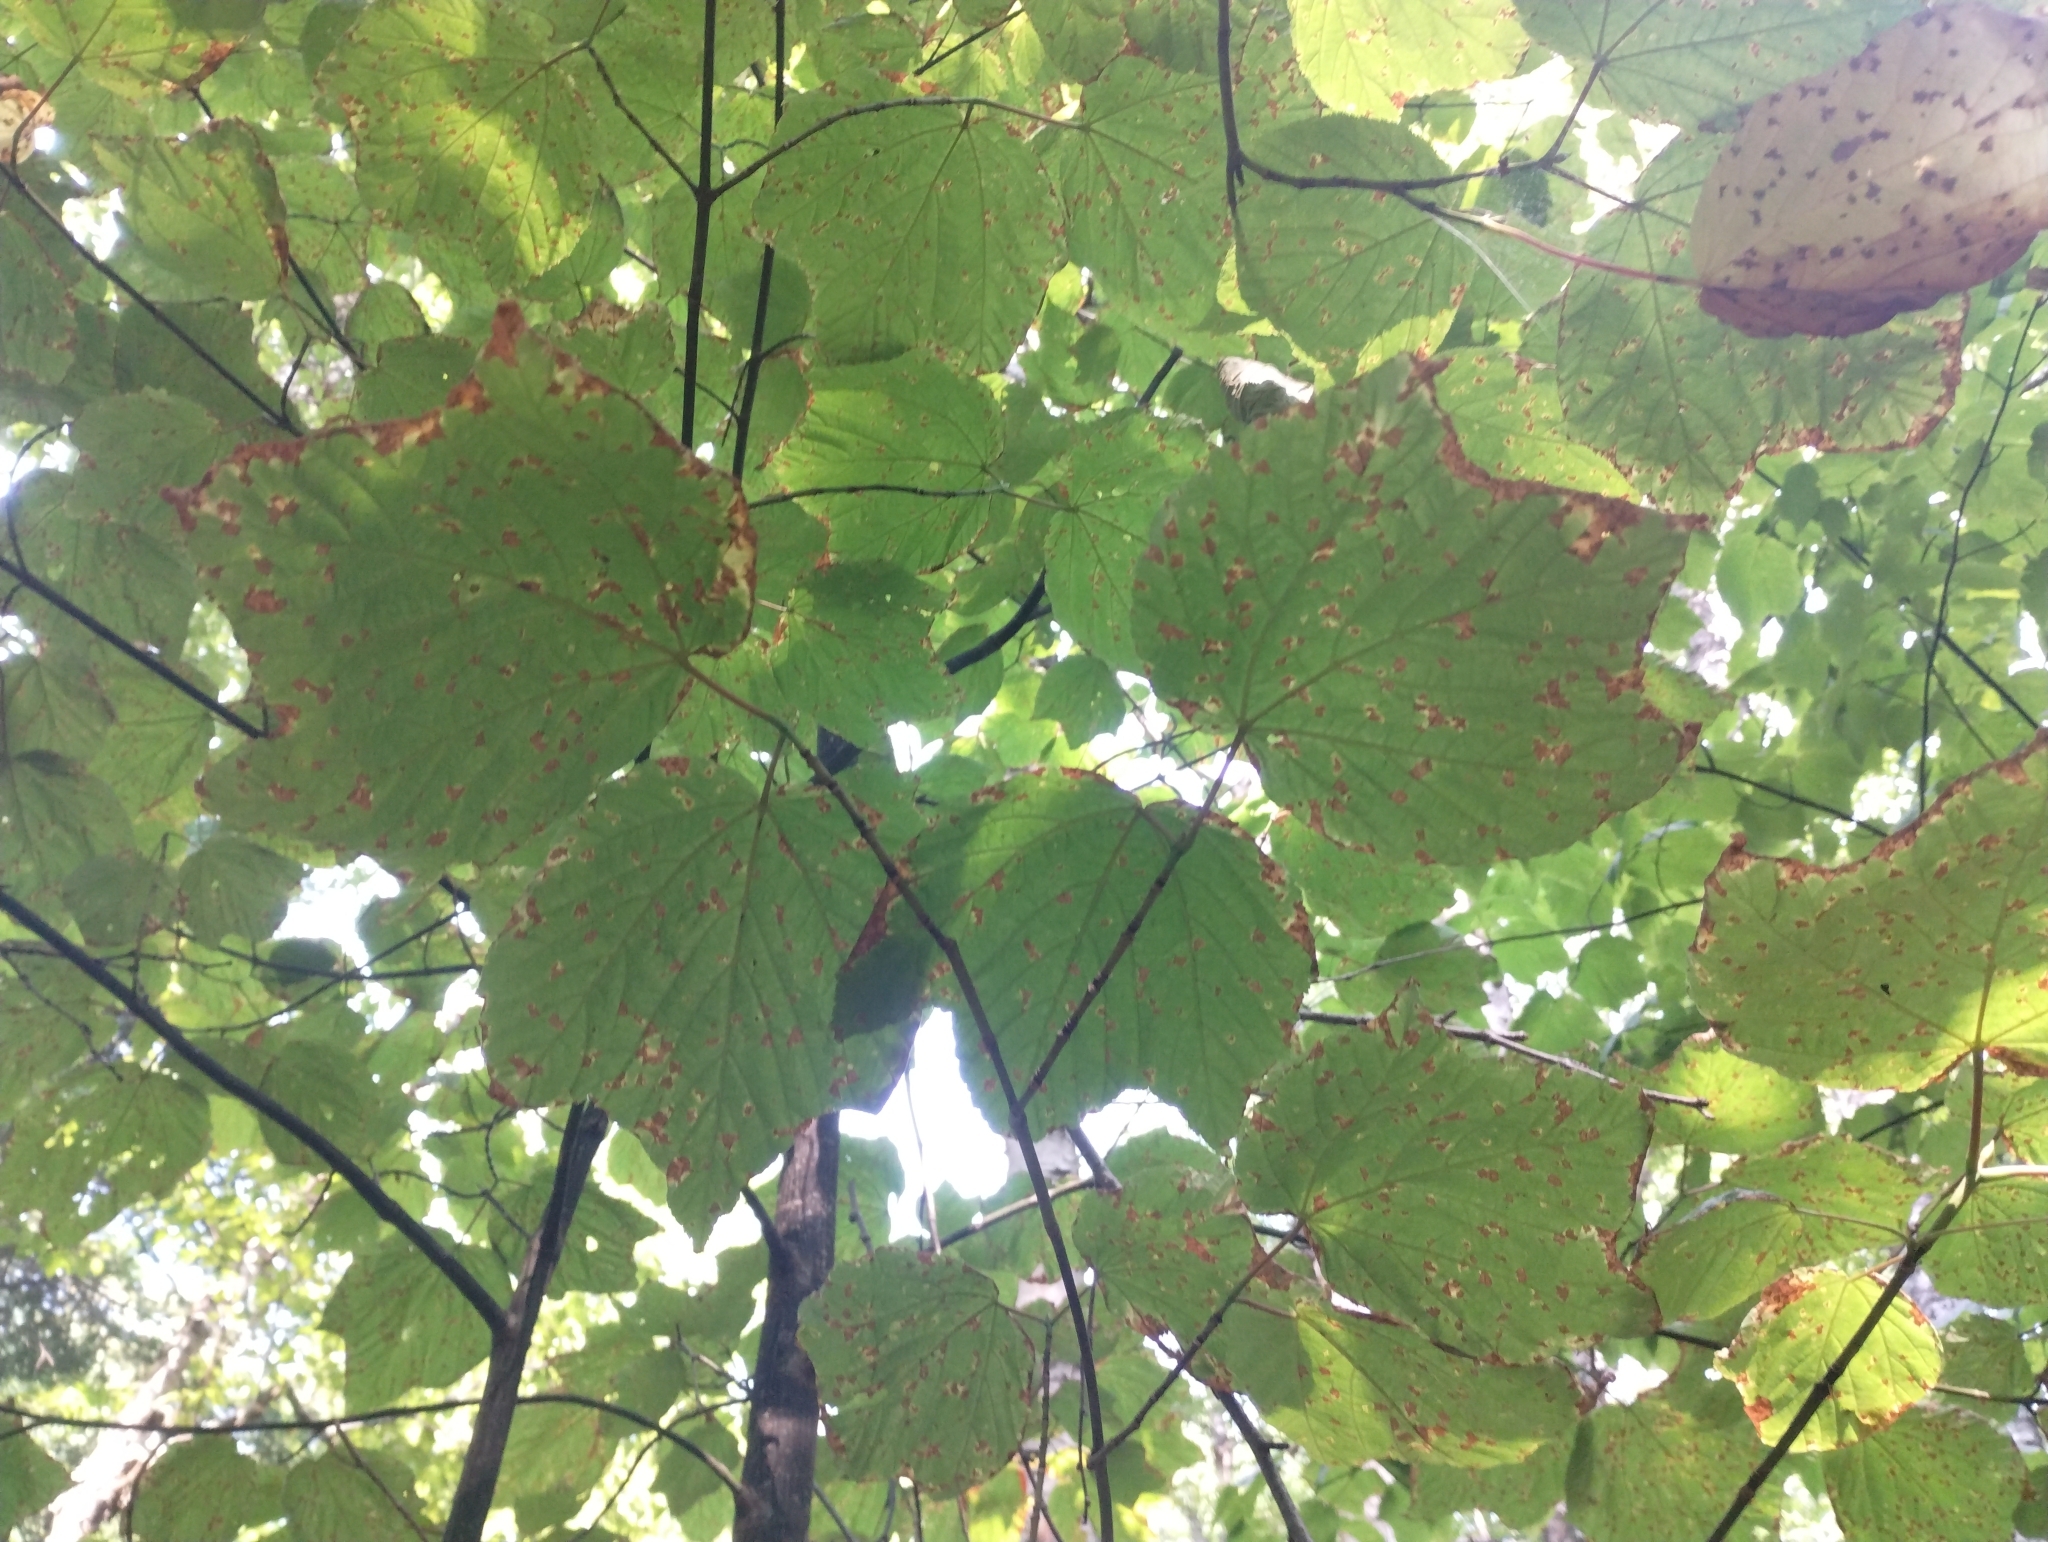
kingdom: Plantae
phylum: Tracheophyta
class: Magnoliopsida
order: Sapindales
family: Sapindaceae
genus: Acer
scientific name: Acer pensylvanicum
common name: Moosewood
